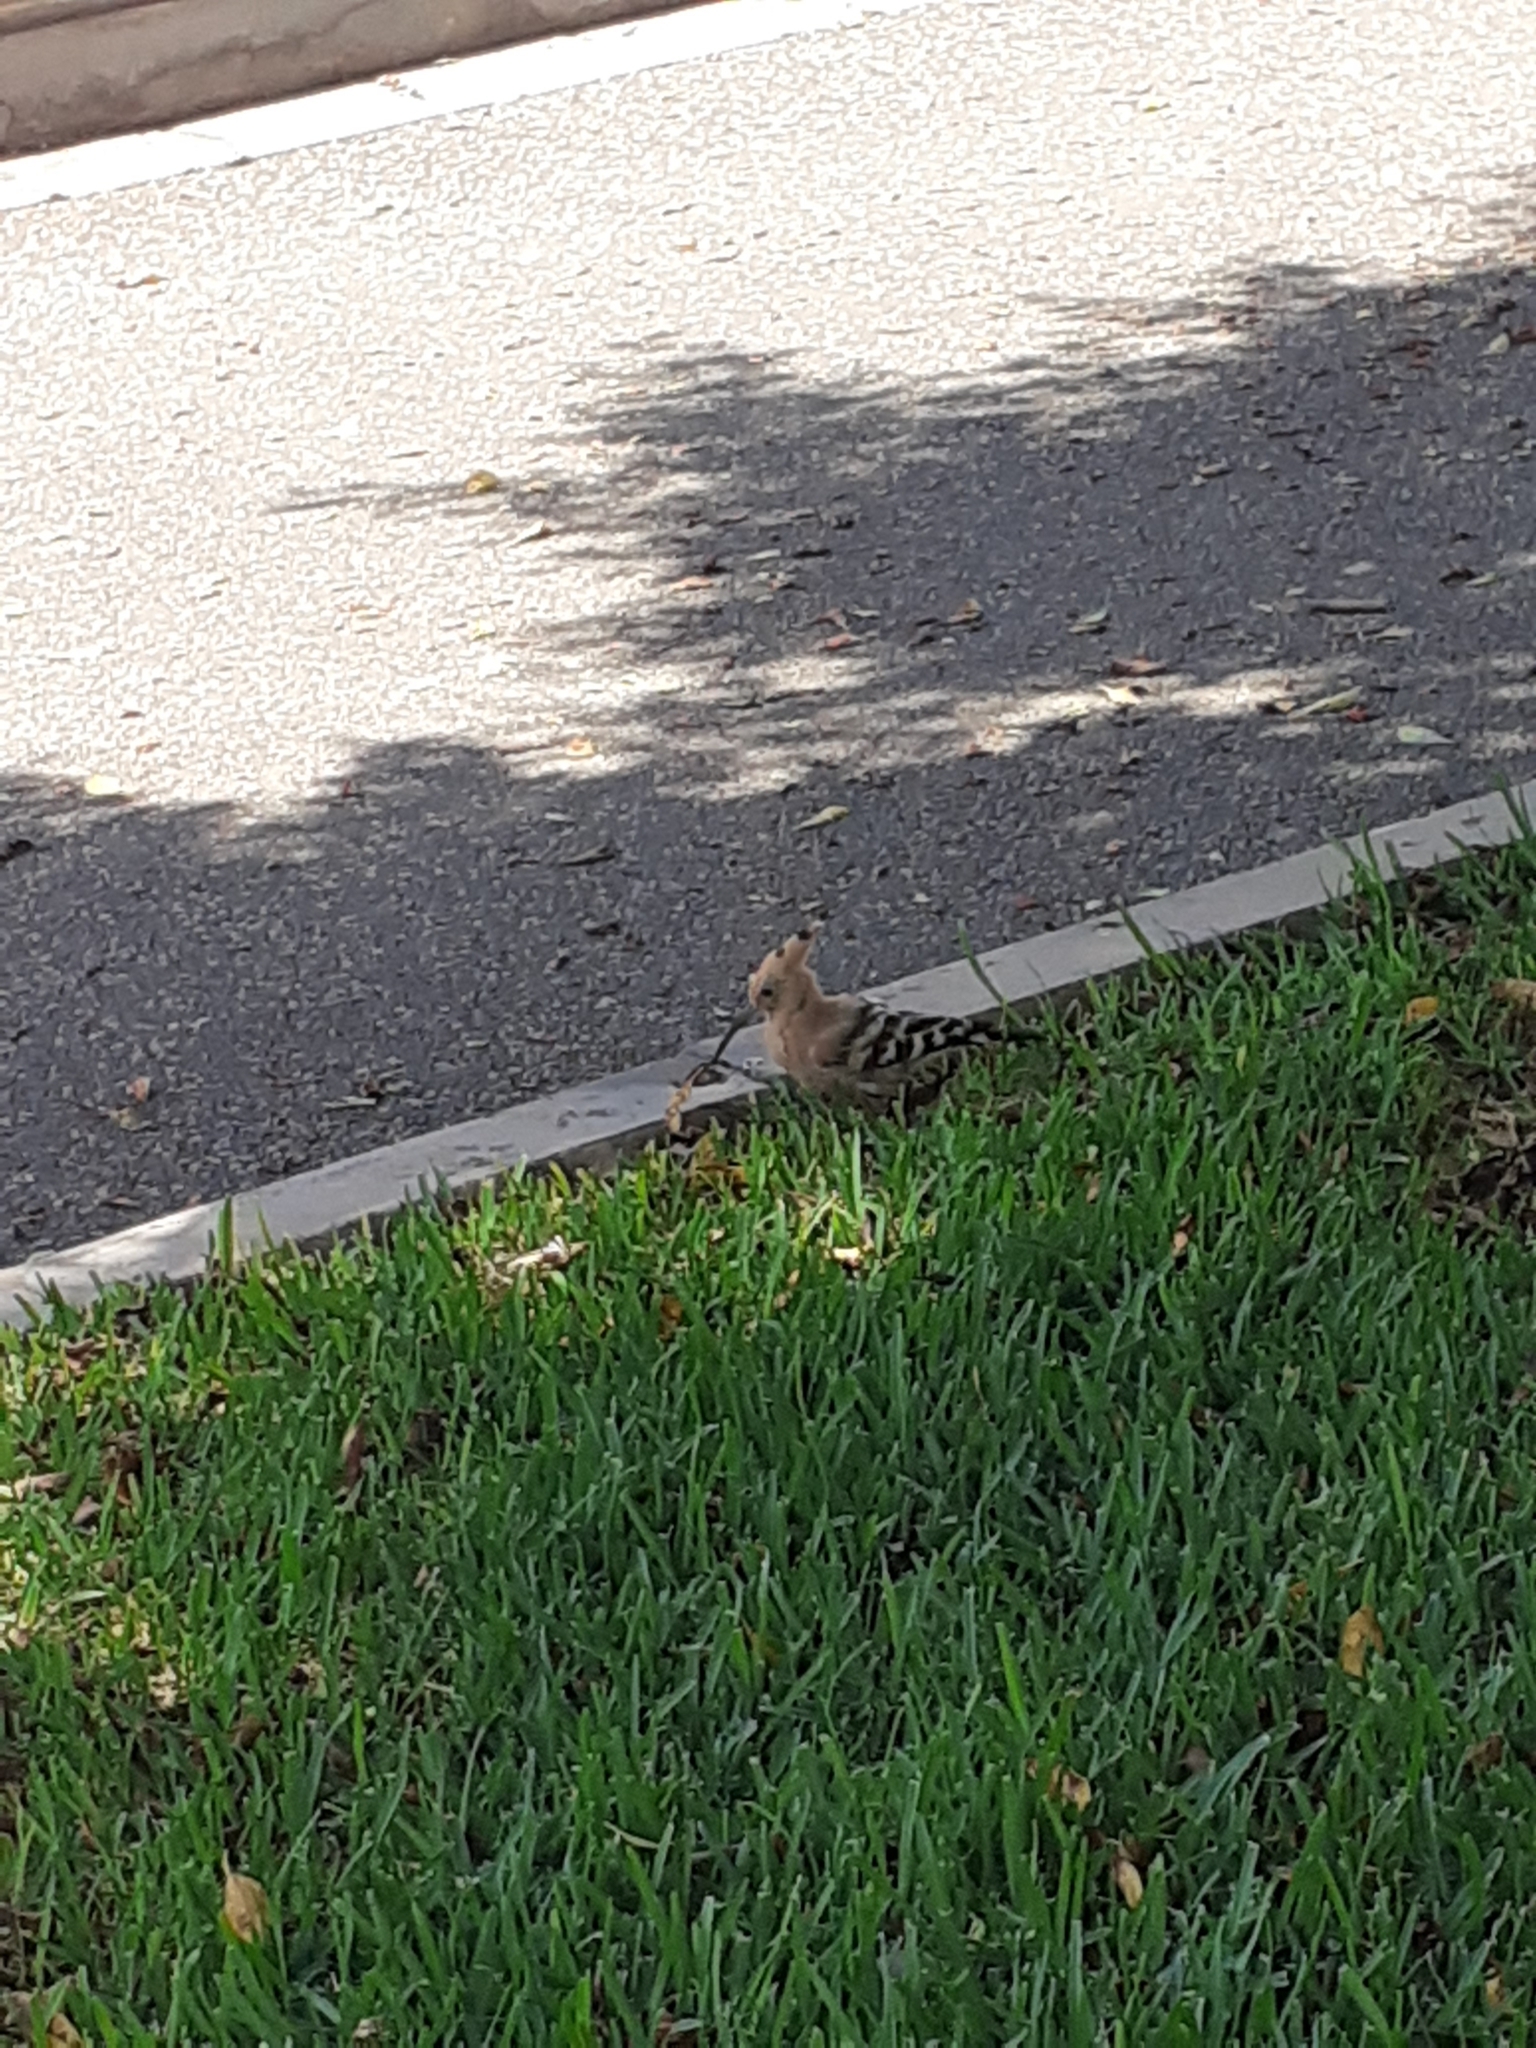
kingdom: Animalia
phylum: Chordata
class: Aves
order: Bucerotiformes
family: Upupidae
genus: Upupa
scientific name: Upupa epops
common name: Eurasian hoopoe
